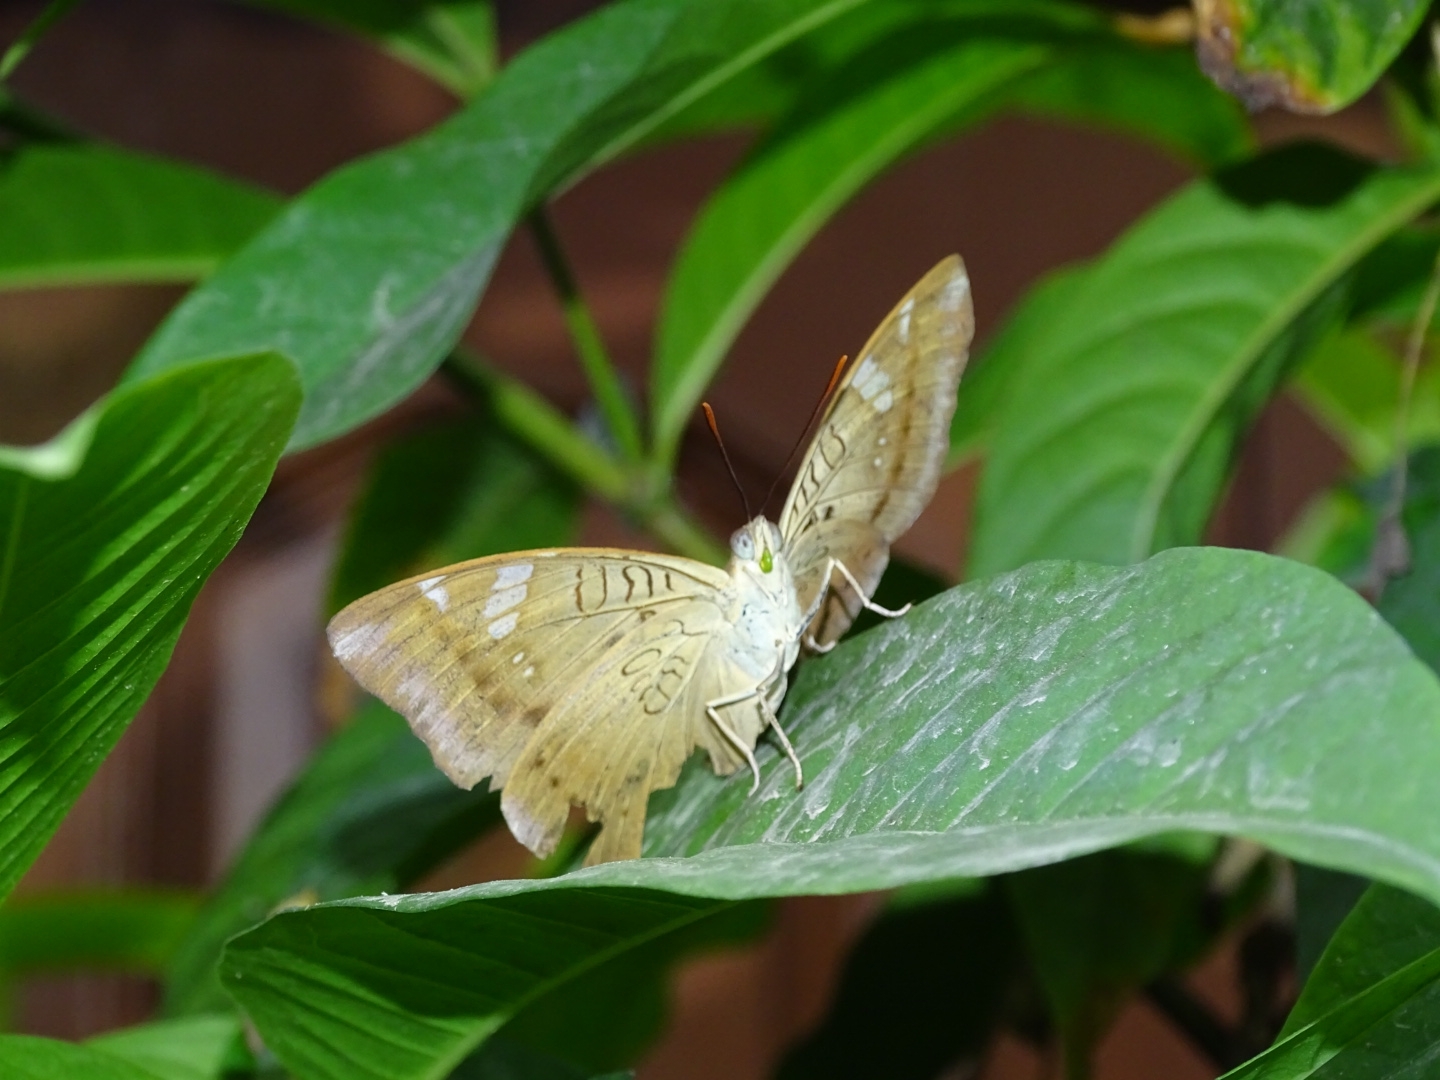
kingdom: Animalia
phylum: Arthropoda
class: Insecta
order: Lepidoptera
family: Nymphalidae
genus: Euthalia
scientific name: Euthalia aconthea
